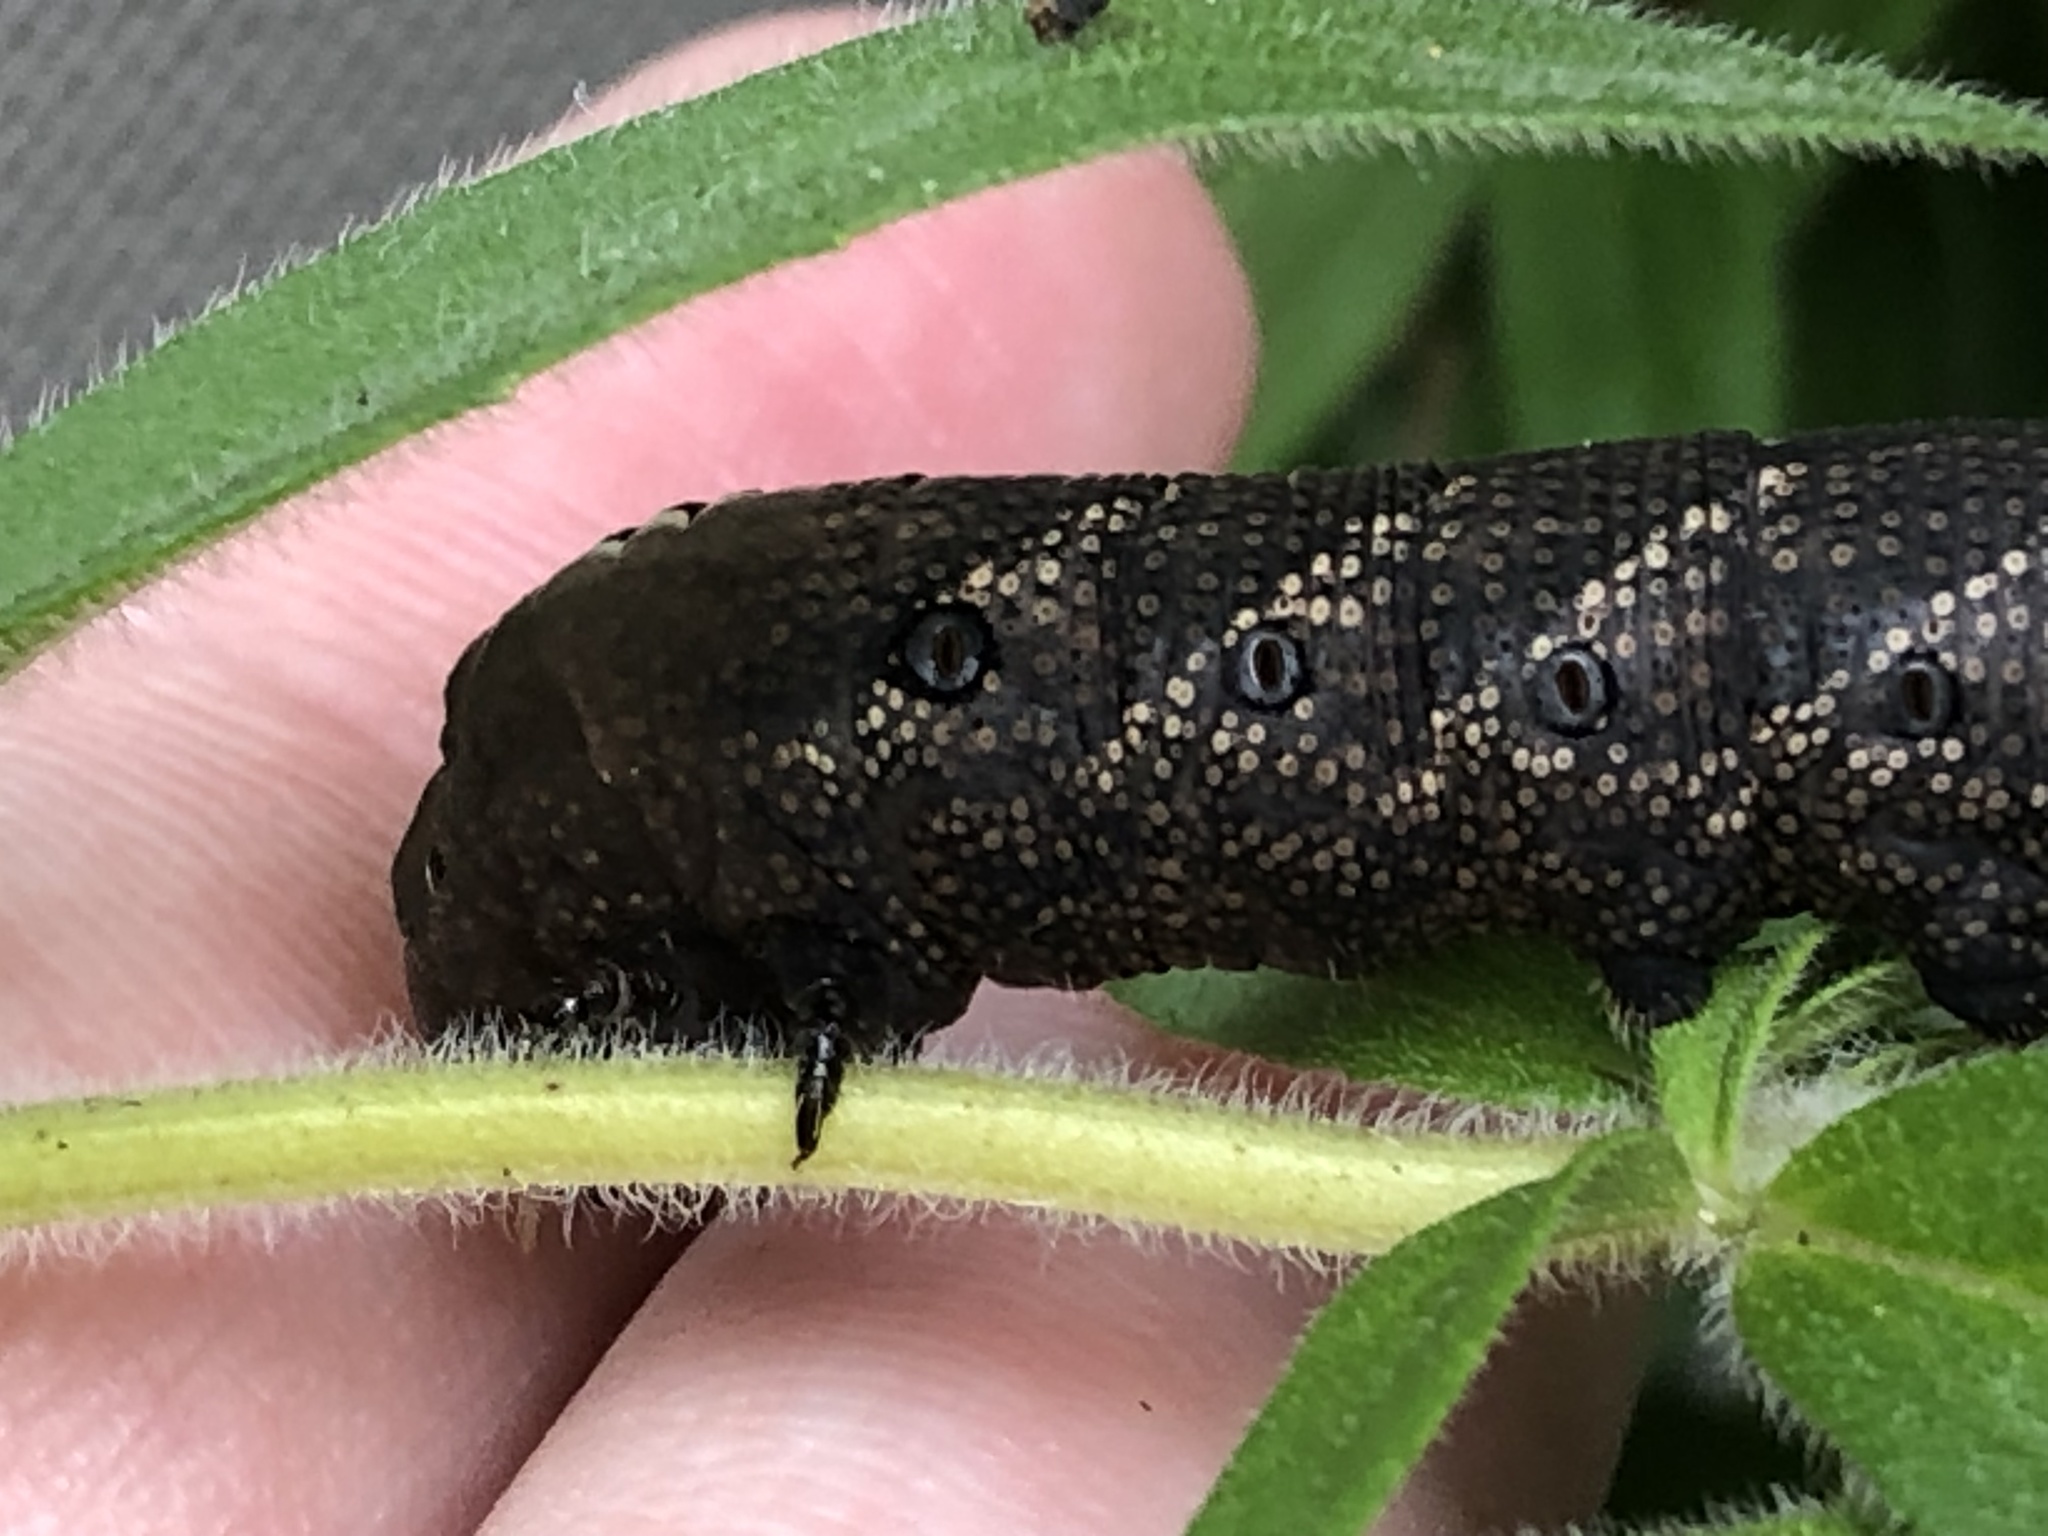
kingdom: Animalia
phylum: Arthropoda
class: Insecta
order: Lepidoptera
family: Sphingidae
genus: Lintneria
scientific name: Lintneria eremitus
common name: Hermit sphinx
